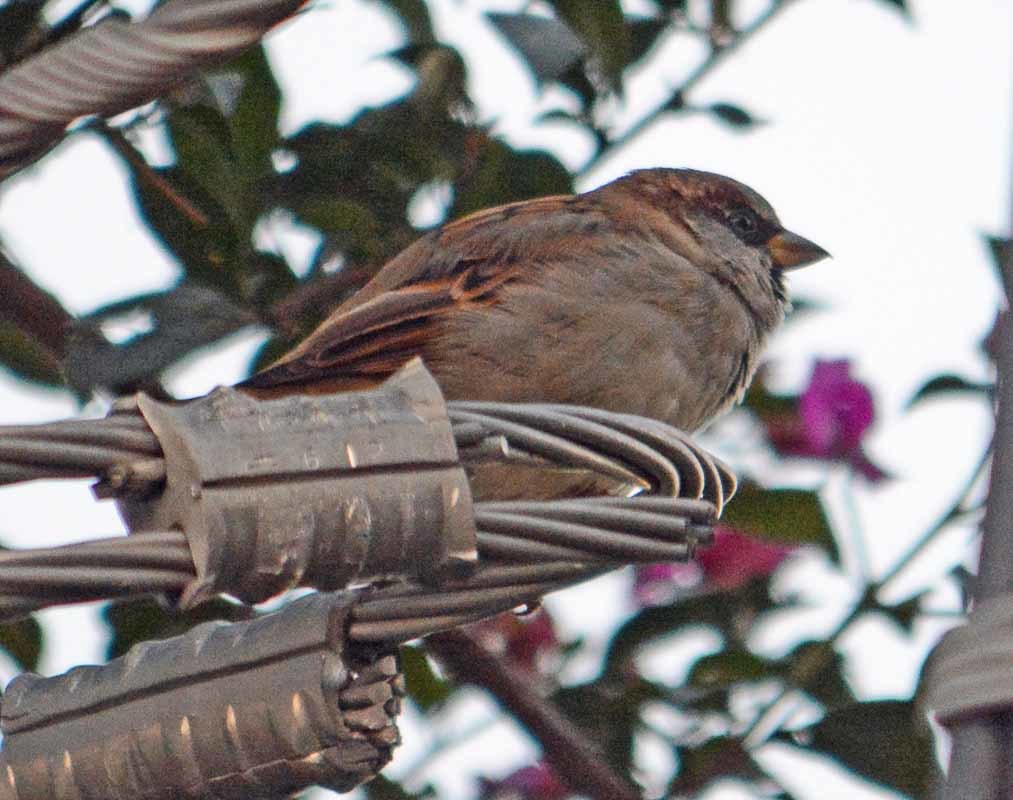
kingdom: Animalia
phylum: Chordata
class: Aves
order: Passeriformes
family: Passeridae
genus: Passer
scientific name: Passer domesticus
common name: House sparrow
